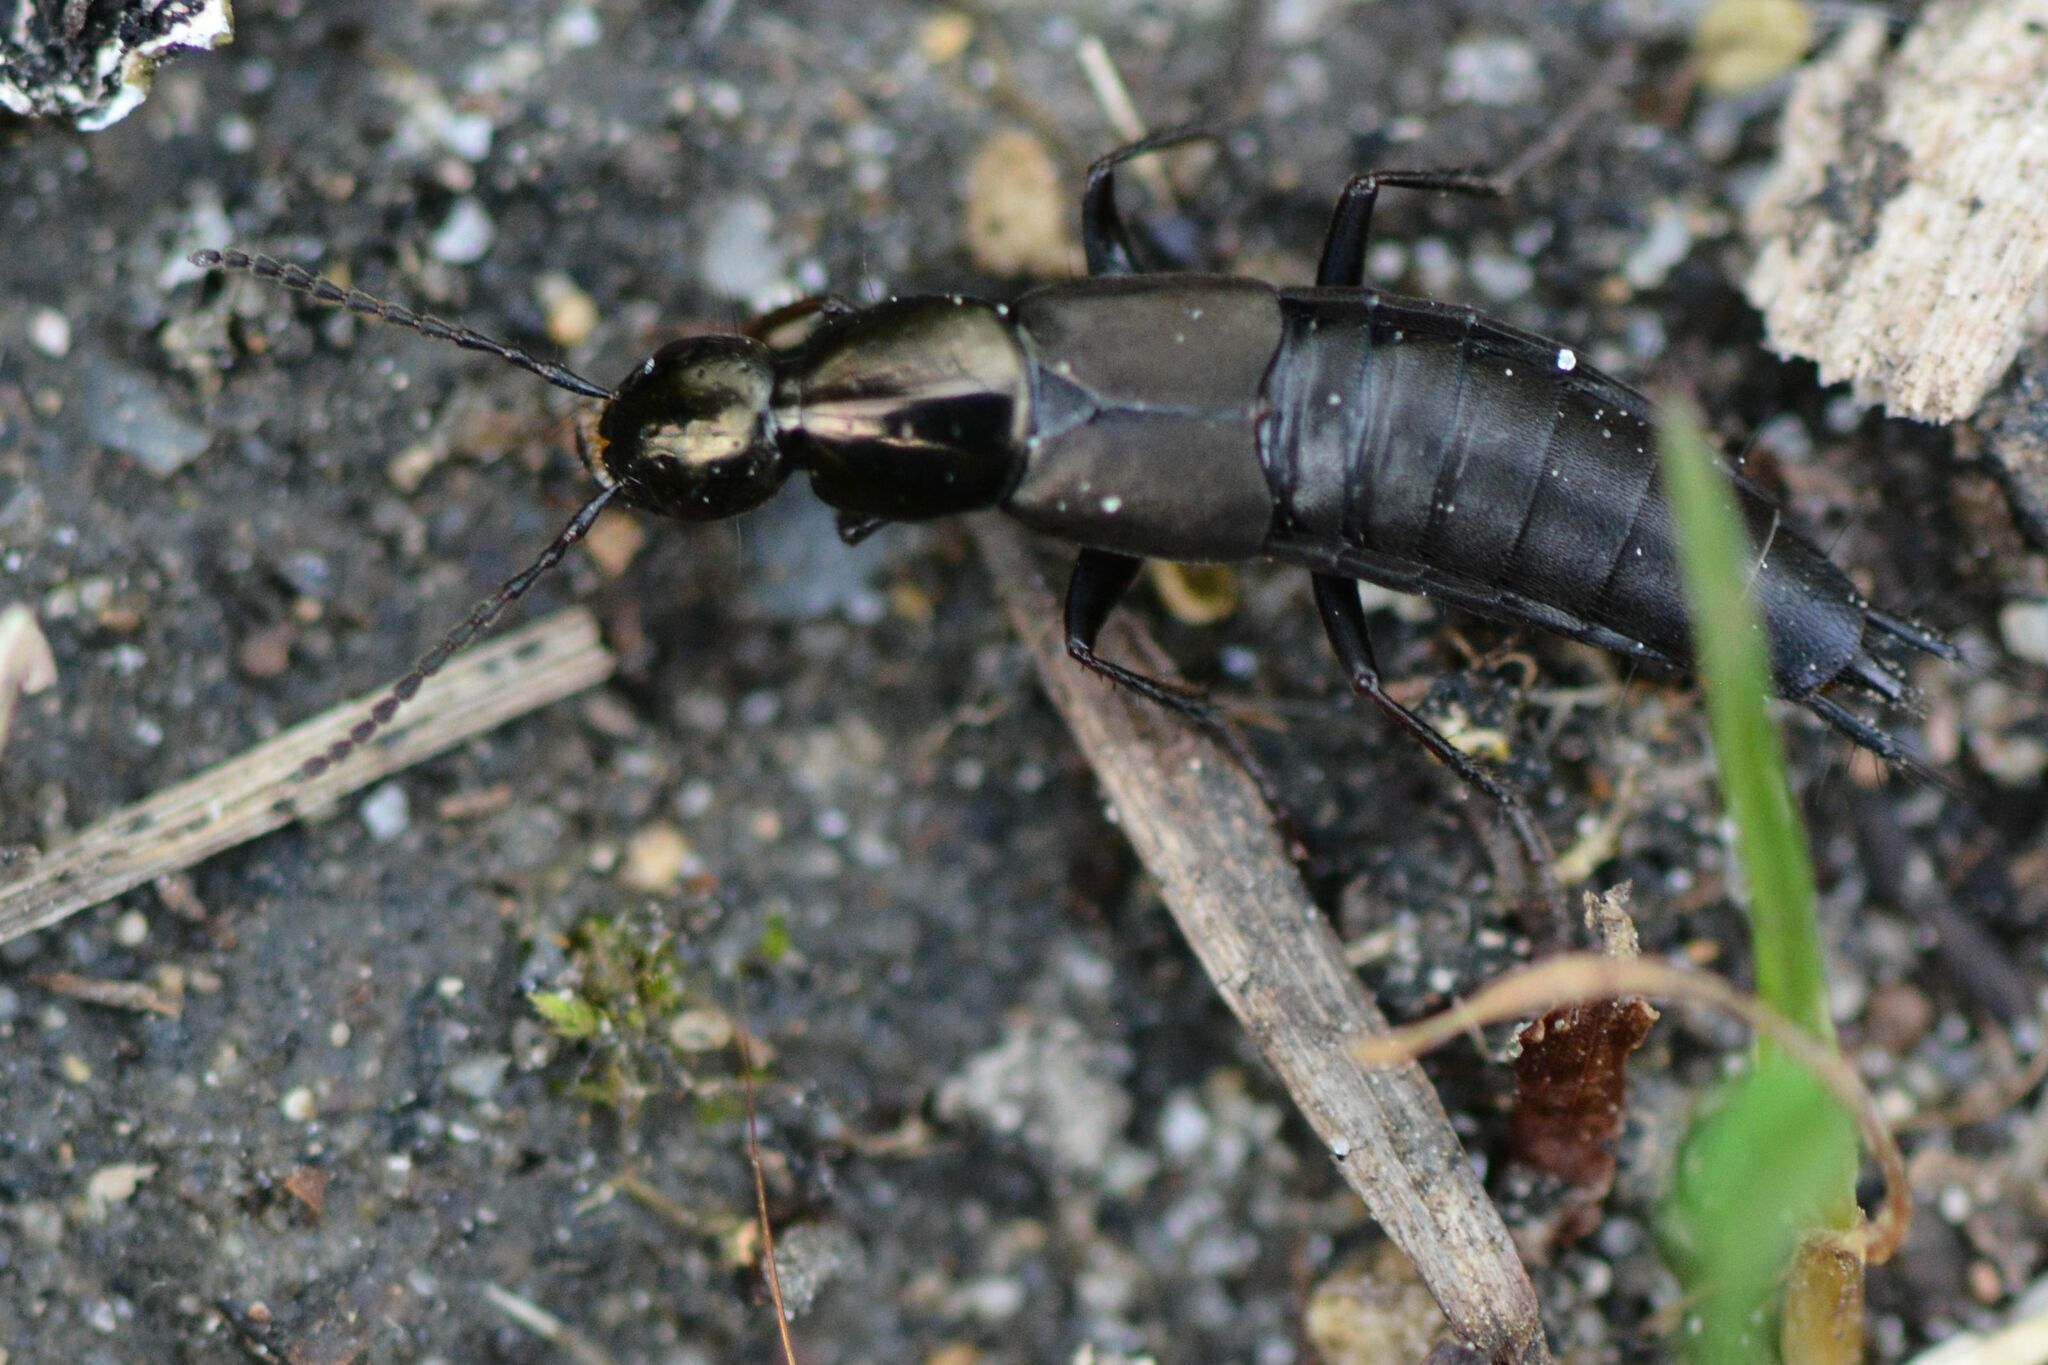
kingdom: Animalia
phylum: Arthropoda
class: Insecta
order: Coleoptera
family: Staphylinidae
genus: Philonthus
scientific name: Philonthus decorus
